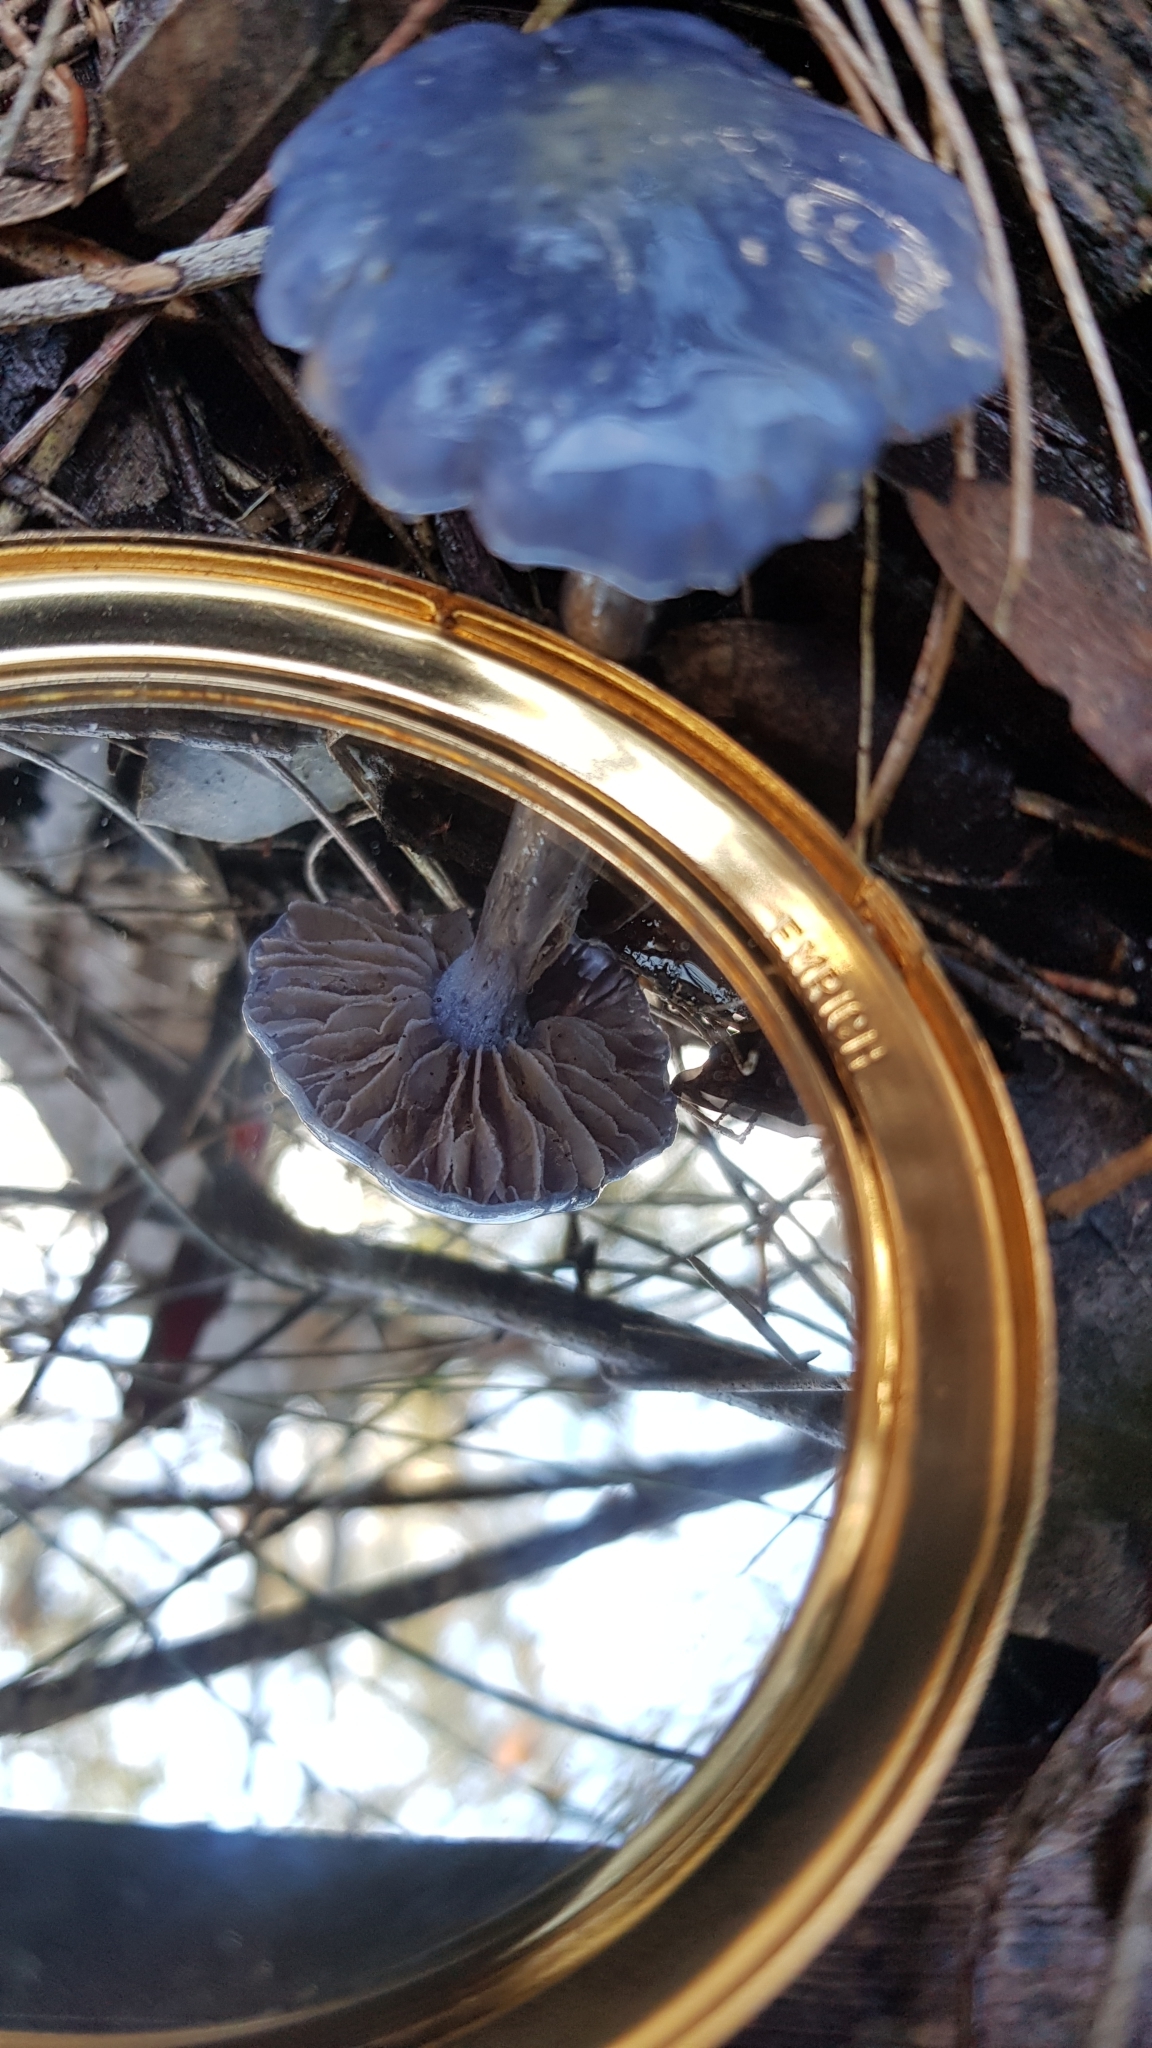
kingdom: Fungi
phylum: Basidiomycota
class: Agaricomycetes
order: Agaricales
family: Cortinariaceae
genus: Cortinarius
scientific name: Cortinarius rotundisporus
